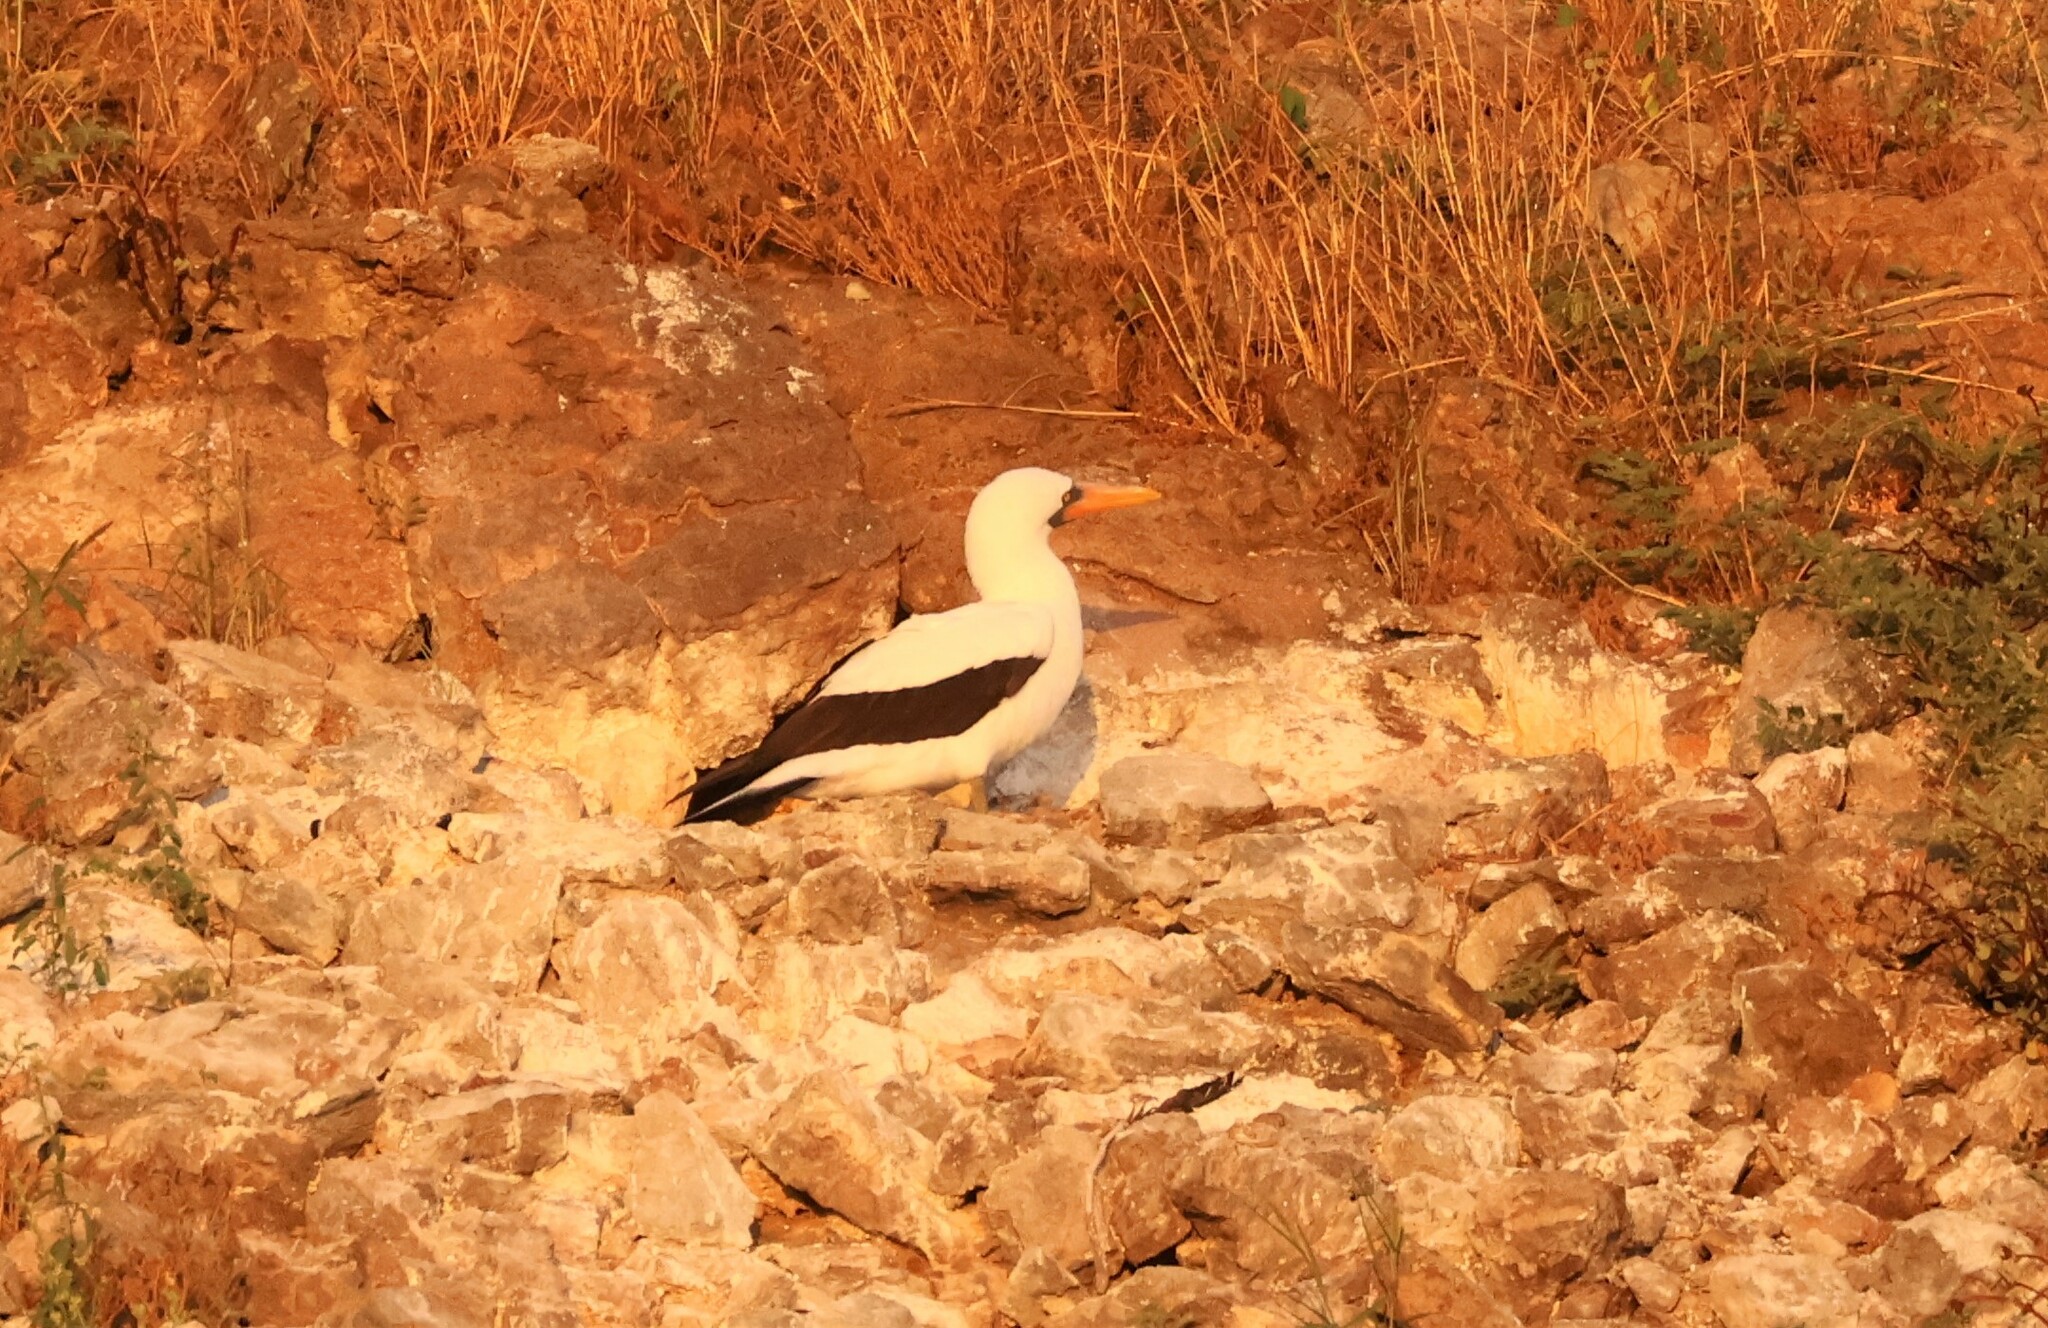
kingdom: Animalia
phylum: Chordata
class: Aves
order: Suliformes
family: Sulidae
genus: Sula
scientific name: Sula granti
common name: Nazca booby
